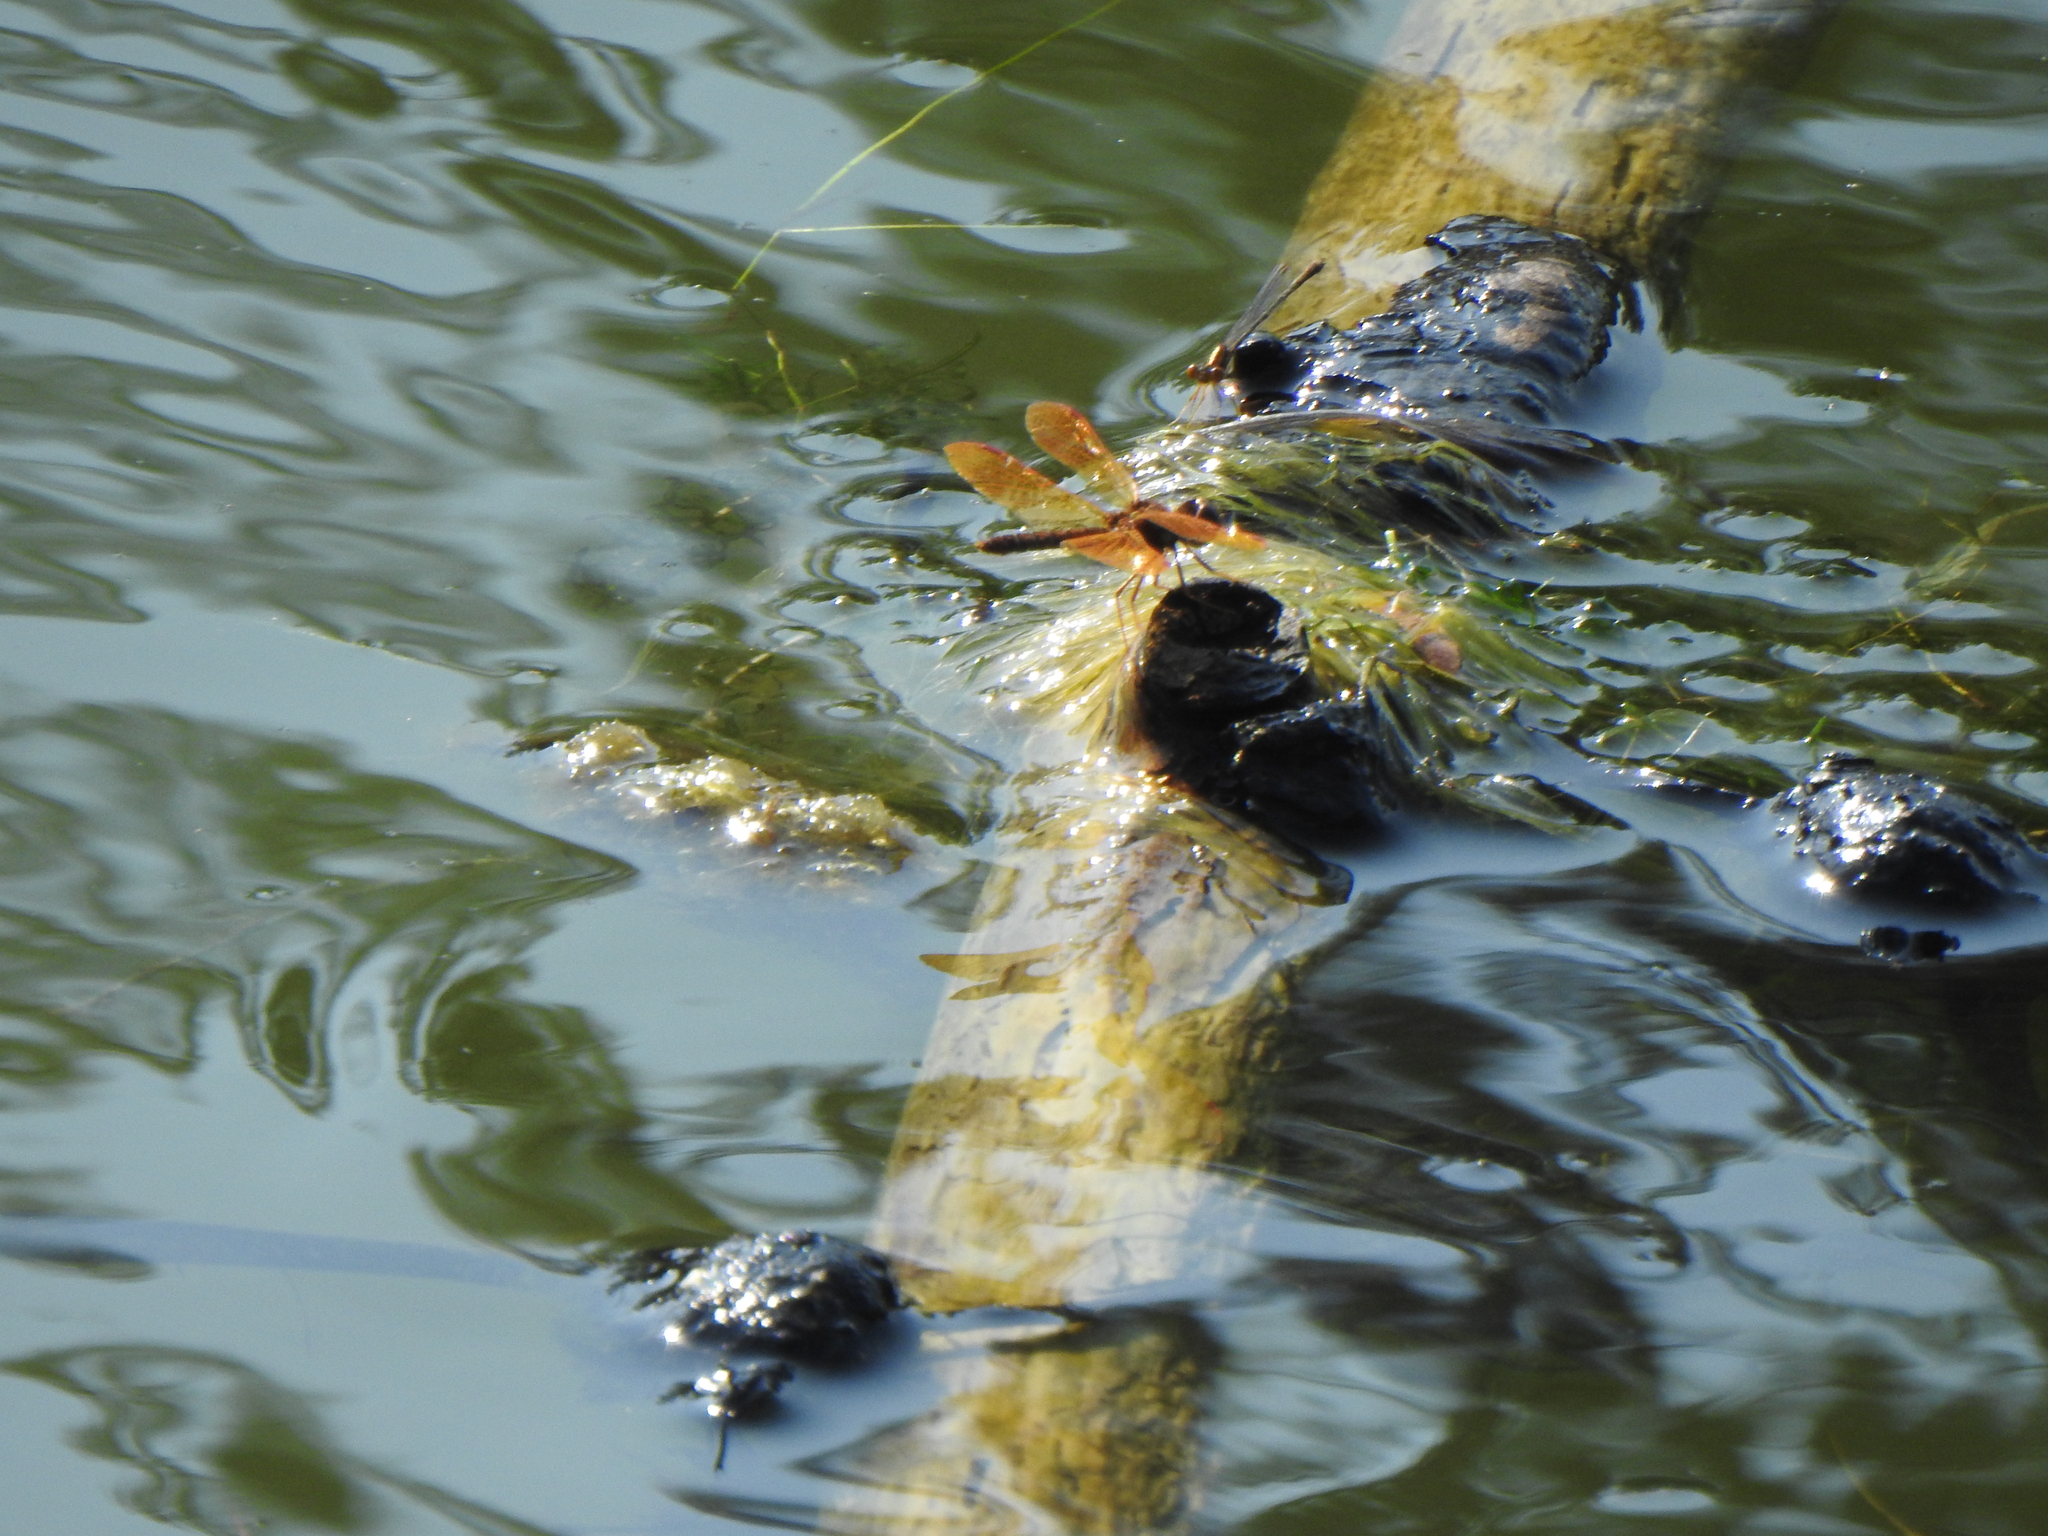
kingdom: Animalia
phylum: Arthropoda
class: Insecta
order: Odonata
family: Libellulidae
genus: Perithemis
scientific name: Perithemis tenera
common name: Eastern amberwing
